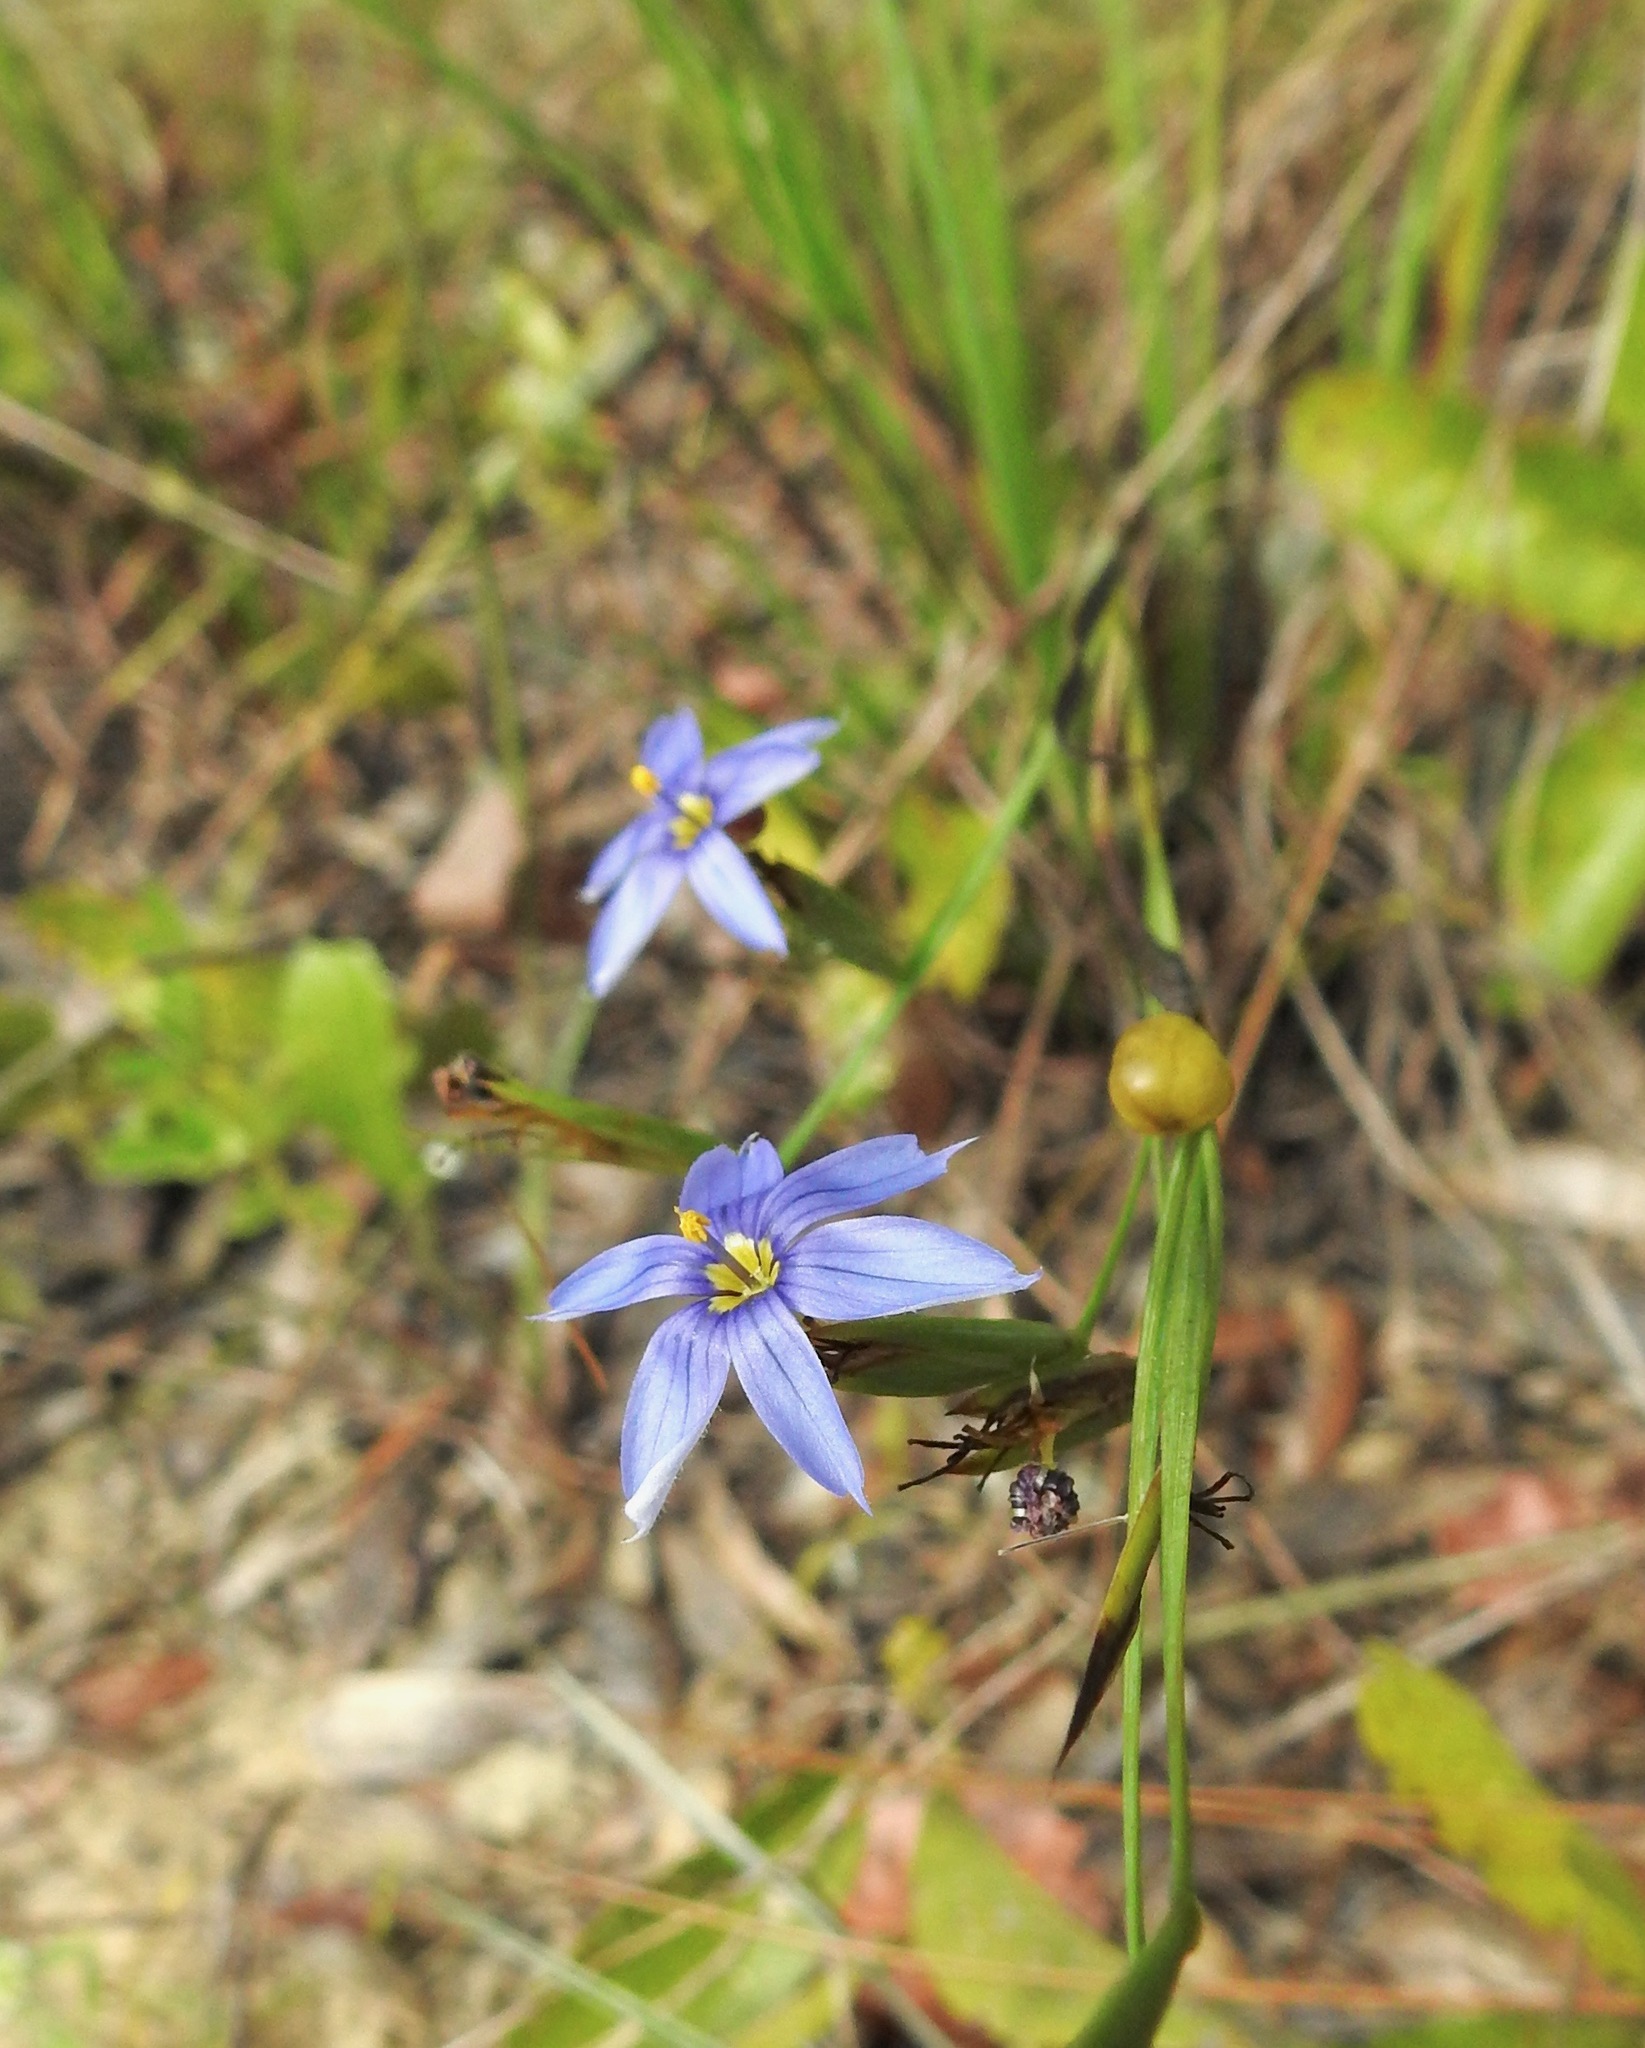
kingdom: Plantae
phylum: Tracheophyta
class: Liliopsida
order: Asparagales
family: Iridaceae
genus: Sisyrinchium
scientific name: Sisyrinchium xerophyllum
